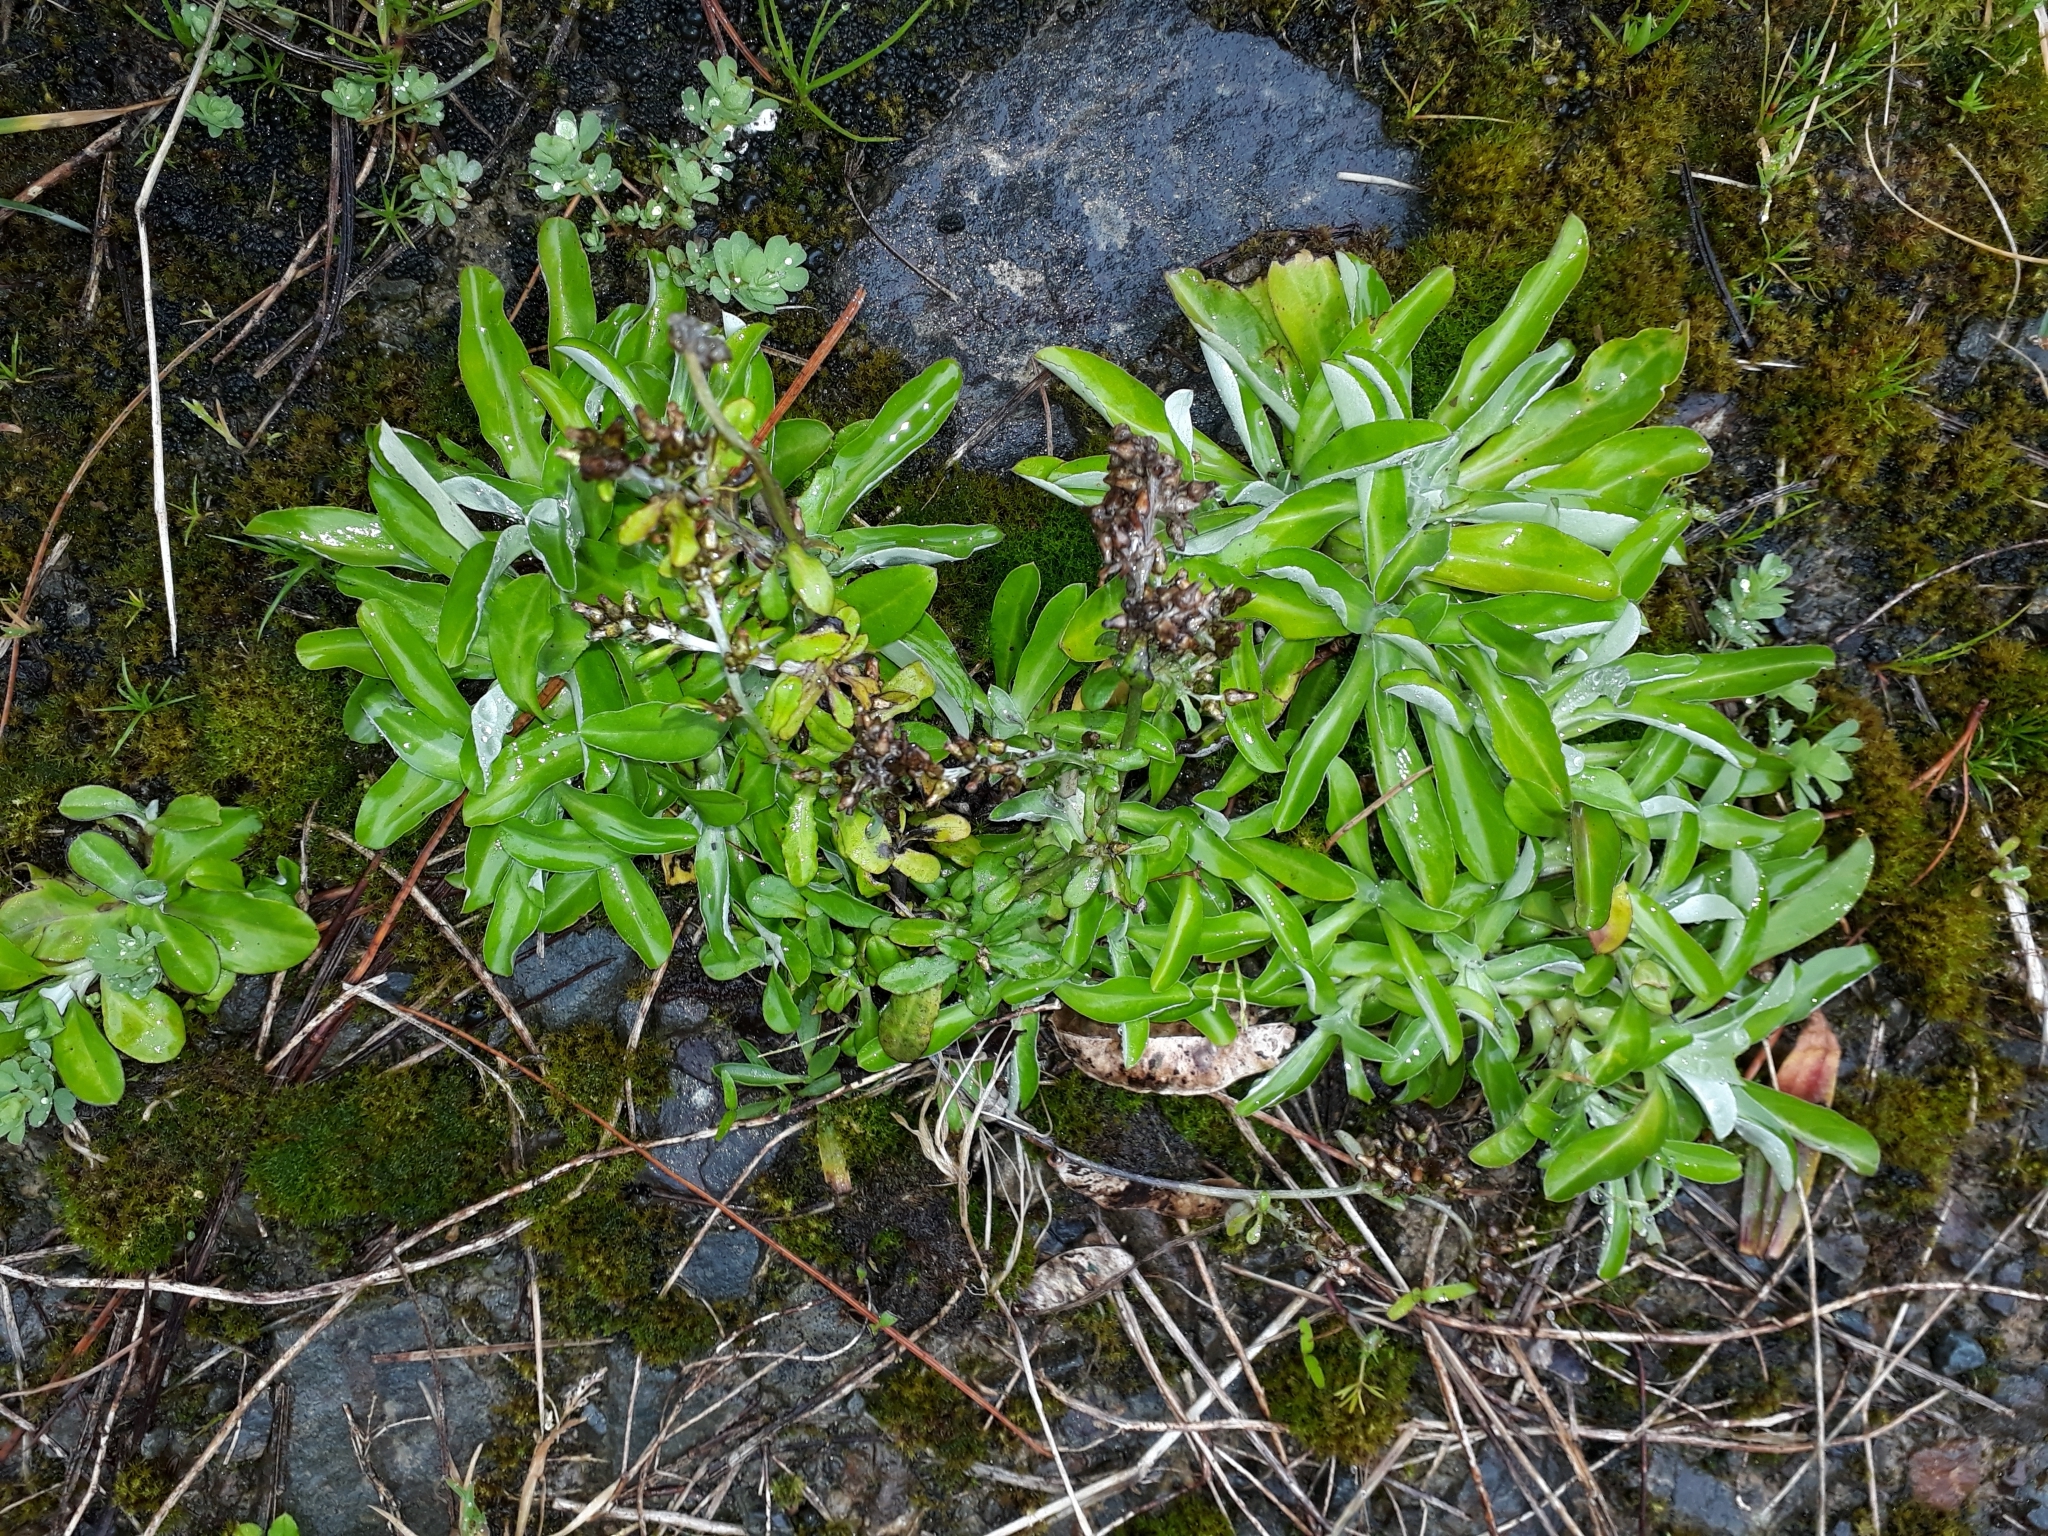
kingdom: Plantae
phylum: Tracheophyta
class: Magnoliopsida
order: Asterales
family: Asteraceae
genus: Gamochaeta
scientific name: Gamochaeta americana
